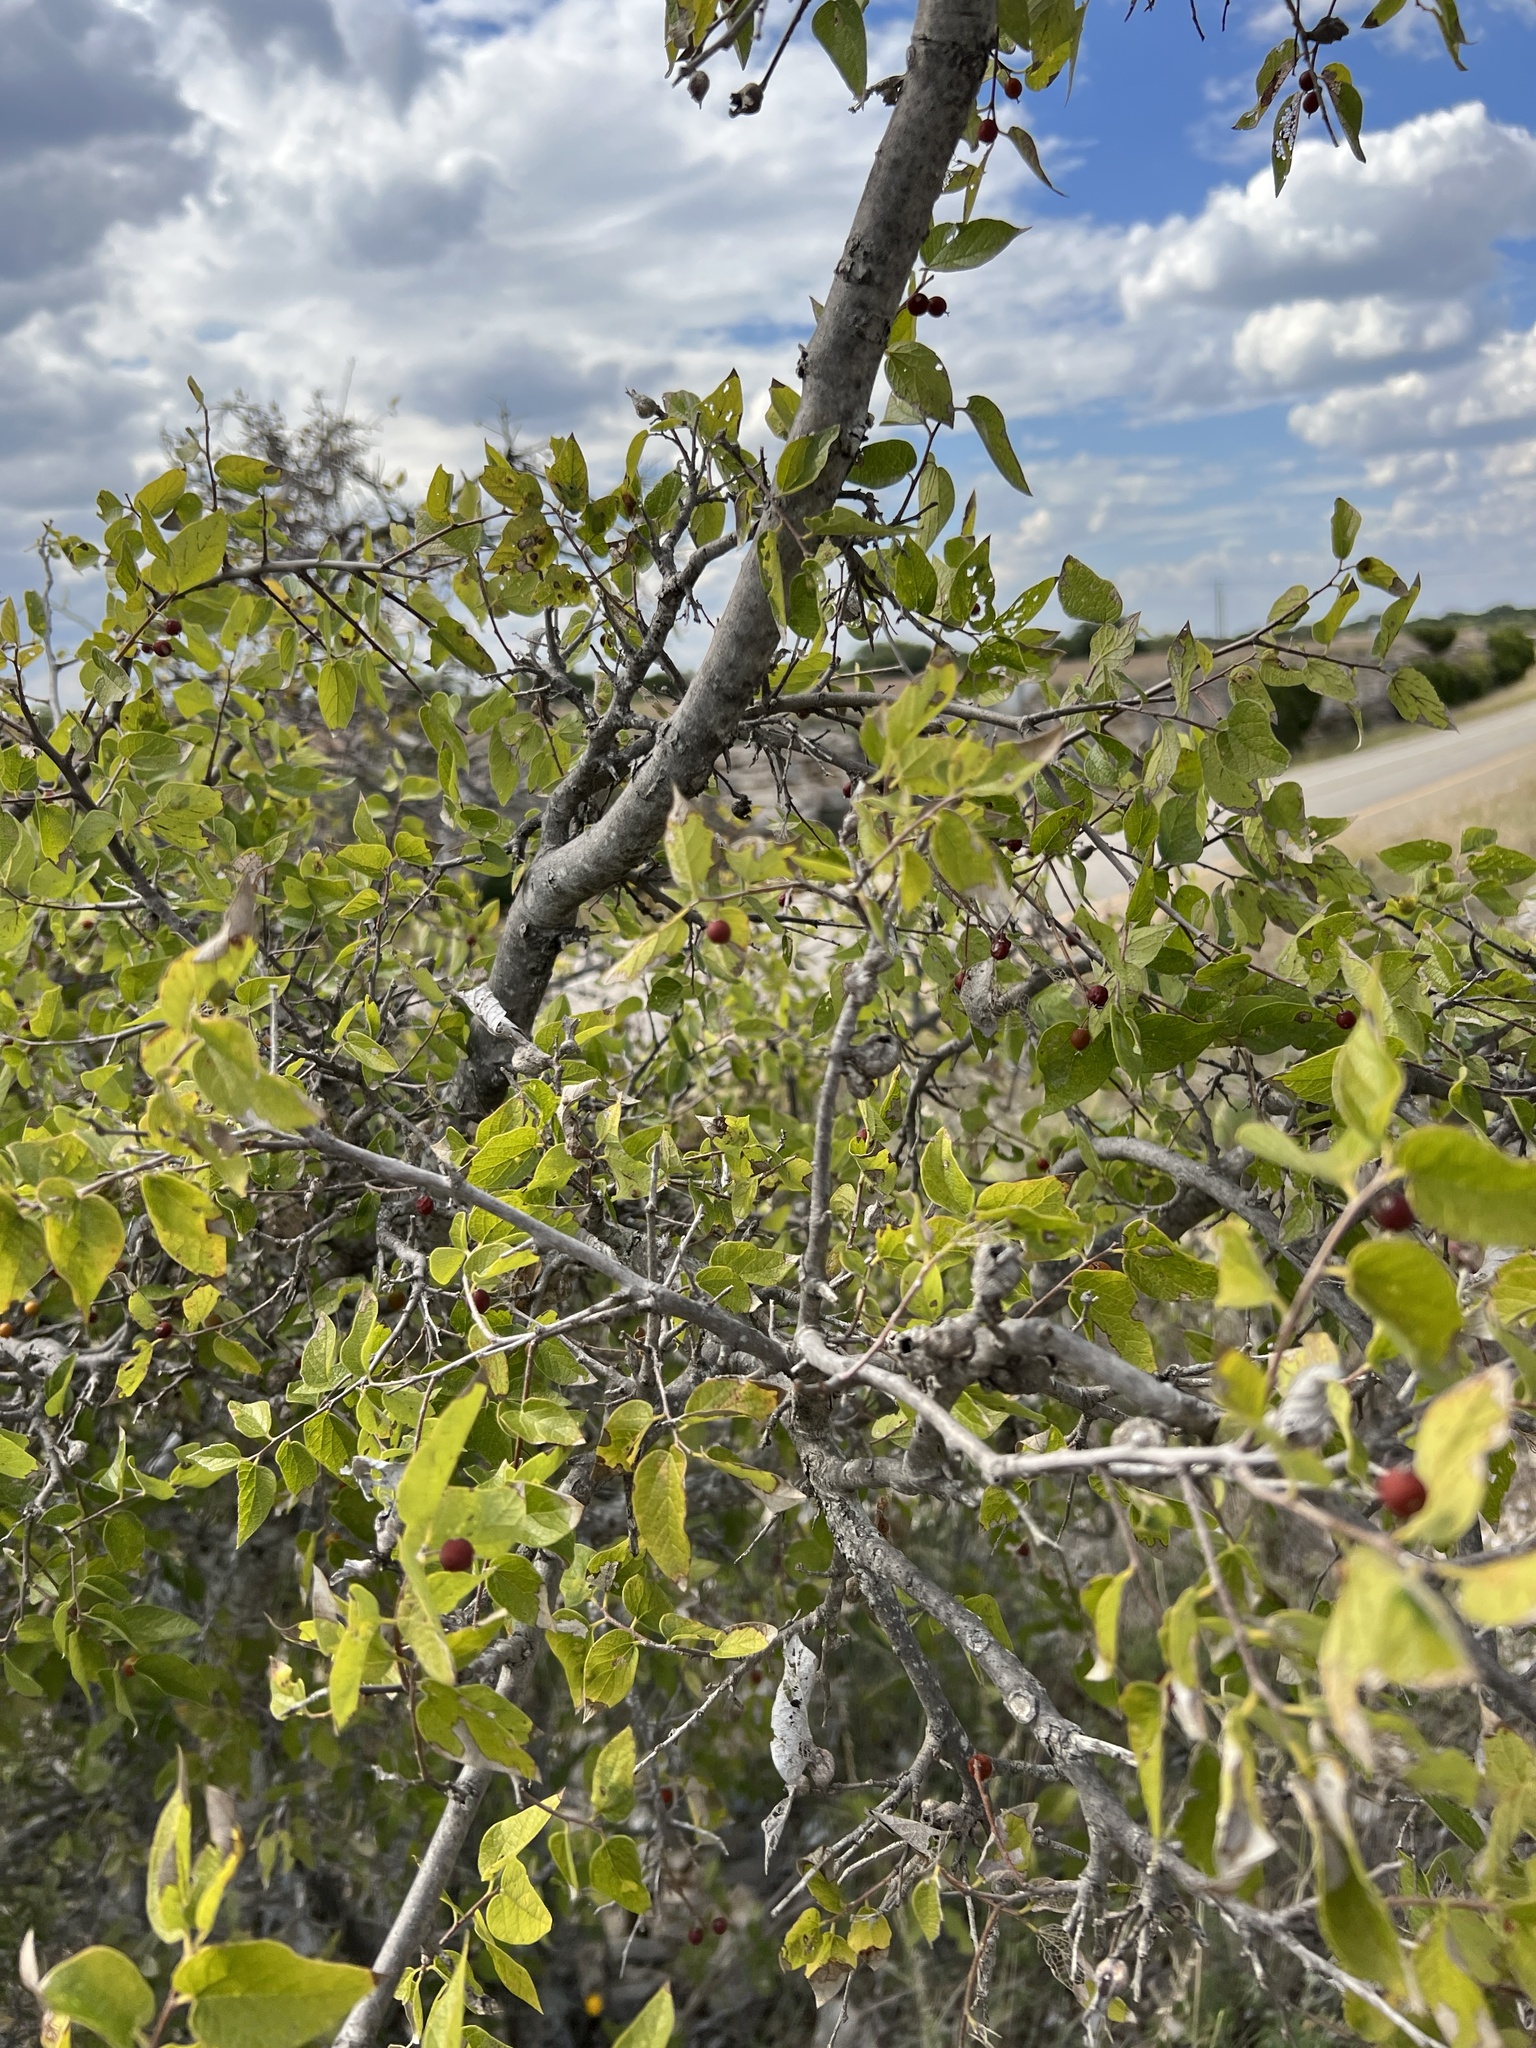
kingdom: Plantae
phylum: Tracheophyta
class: Magnoliopsida
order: Rosales
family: Cannabaceae
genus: Celtis
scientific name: Celtis reticulata
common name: Netleaf hackberry
